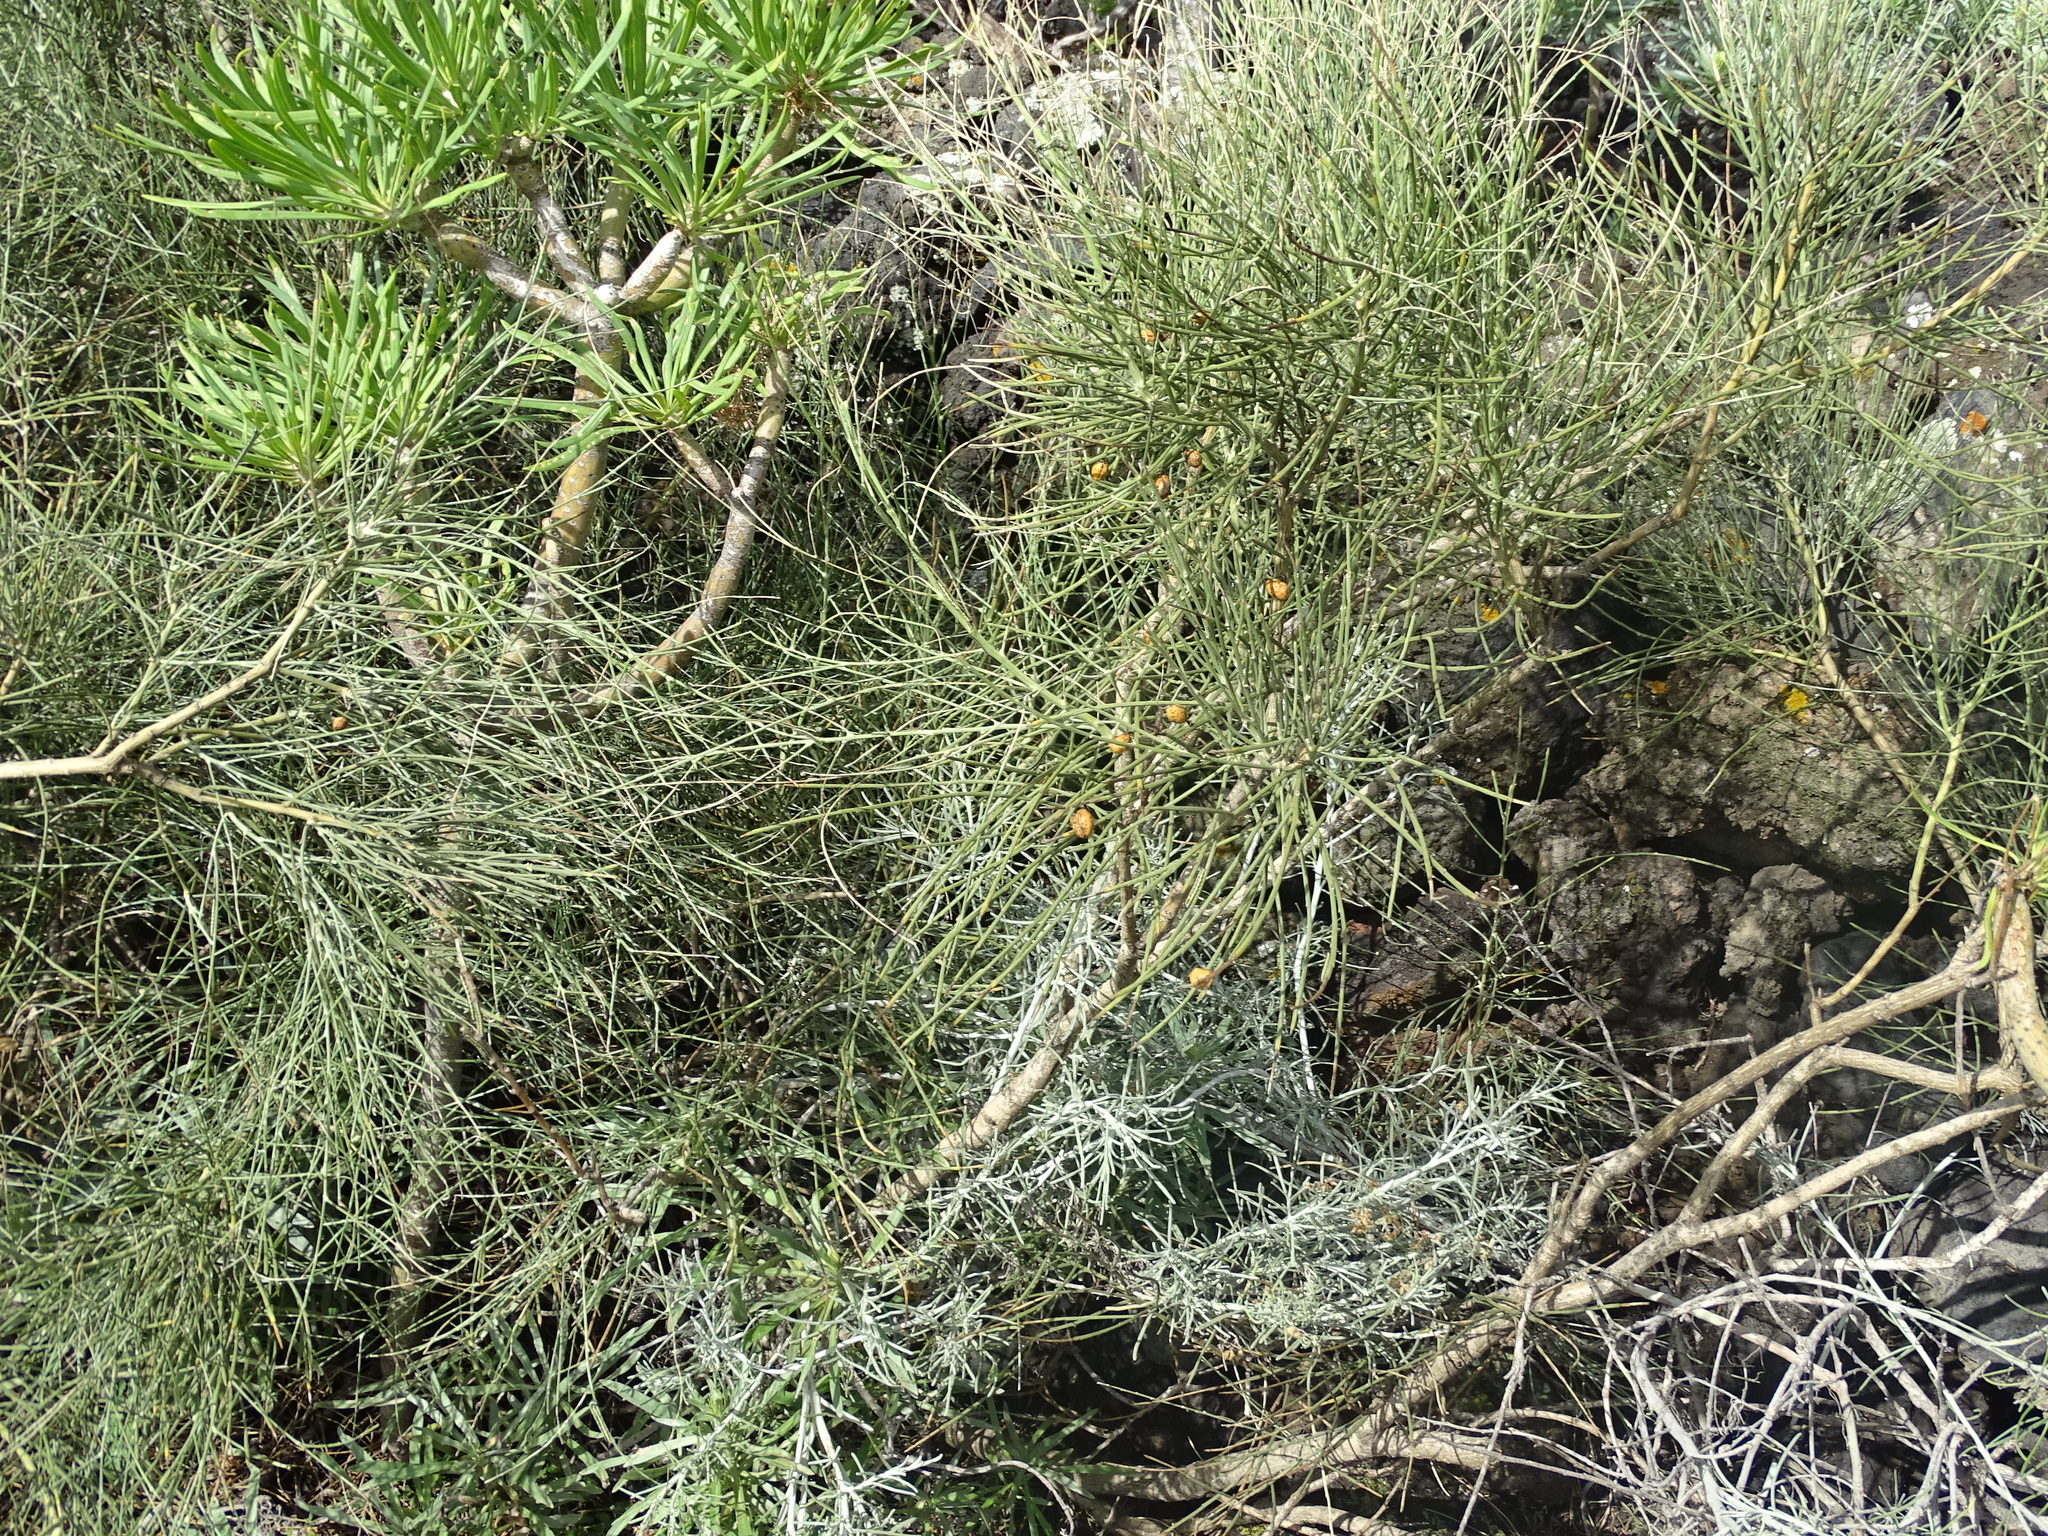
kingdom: Plantae
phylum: Tracheophyta
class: Magnoliopsida
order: Fabales
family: Fabaceae
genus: Retama
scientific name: Retama rhodorhizoides
